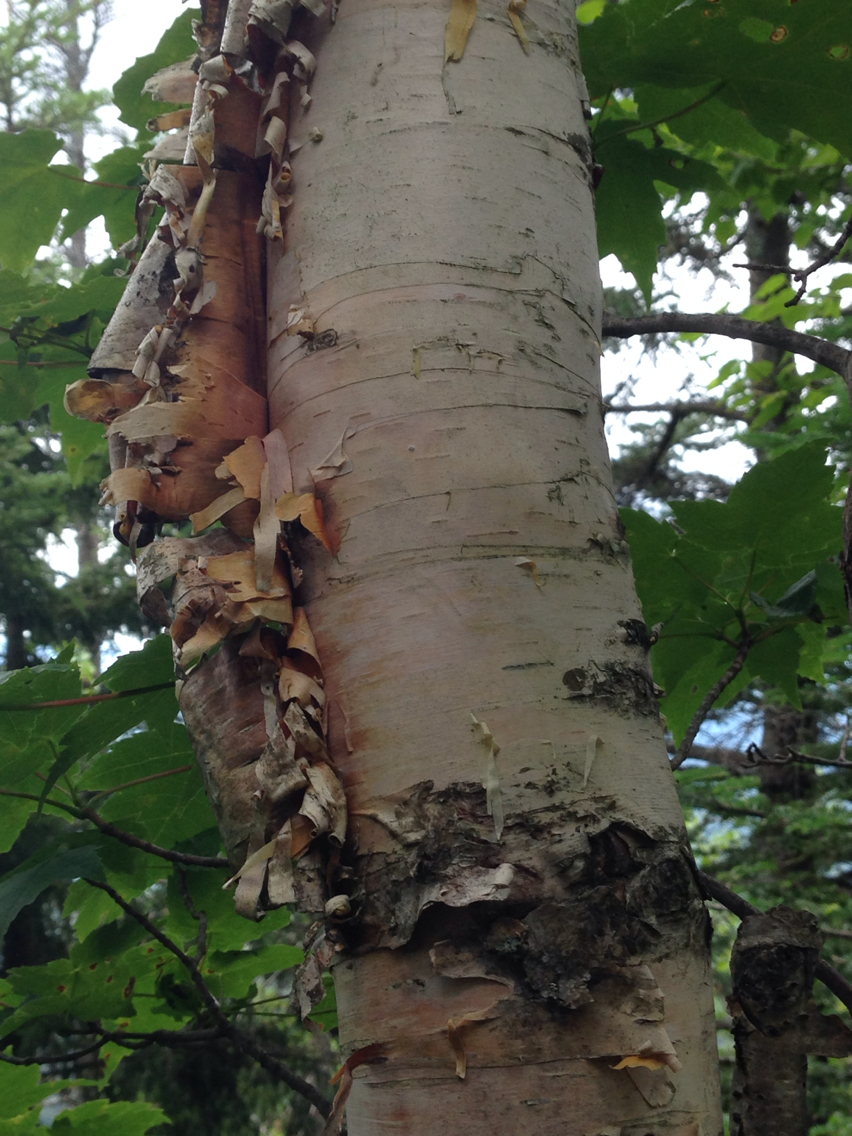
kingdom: Plantae
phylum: Tracheophyta
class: Magnoliopsida
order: Fagales
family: Betulaceae
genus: Betula
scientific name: Betula papyrifera
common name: Paper birch
